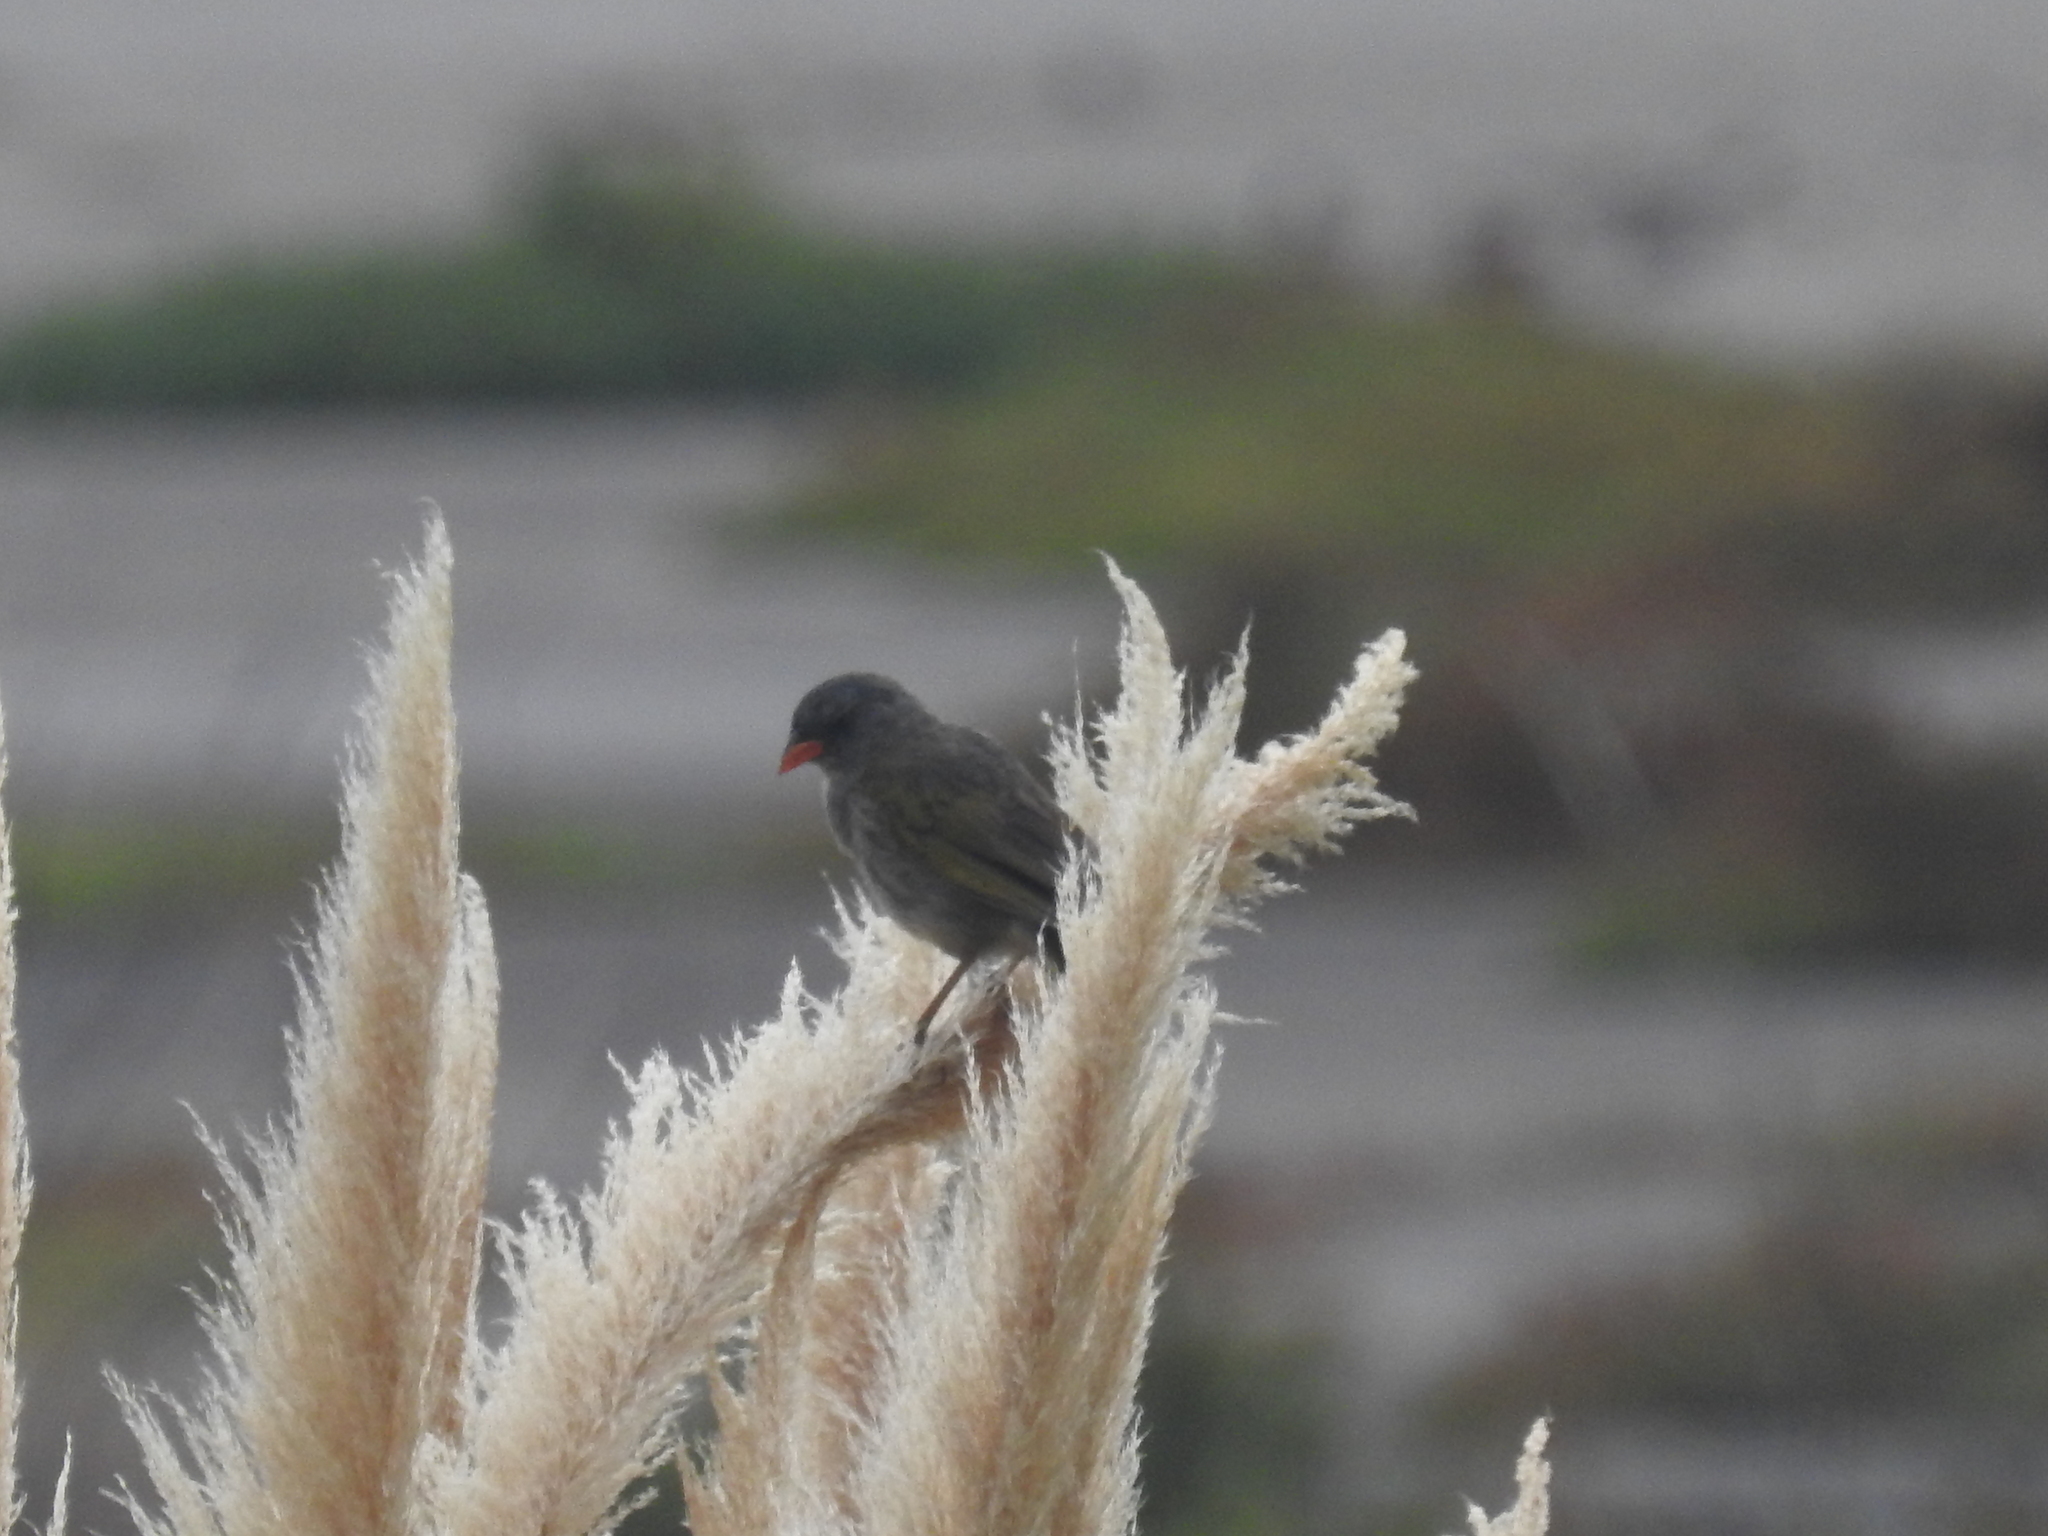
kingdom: Animalia
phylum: Chordata
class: Aves
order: Passeriformes
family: Thraupidae
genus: Embernagra
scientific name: Embernagra platensis
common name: Pampa finch
